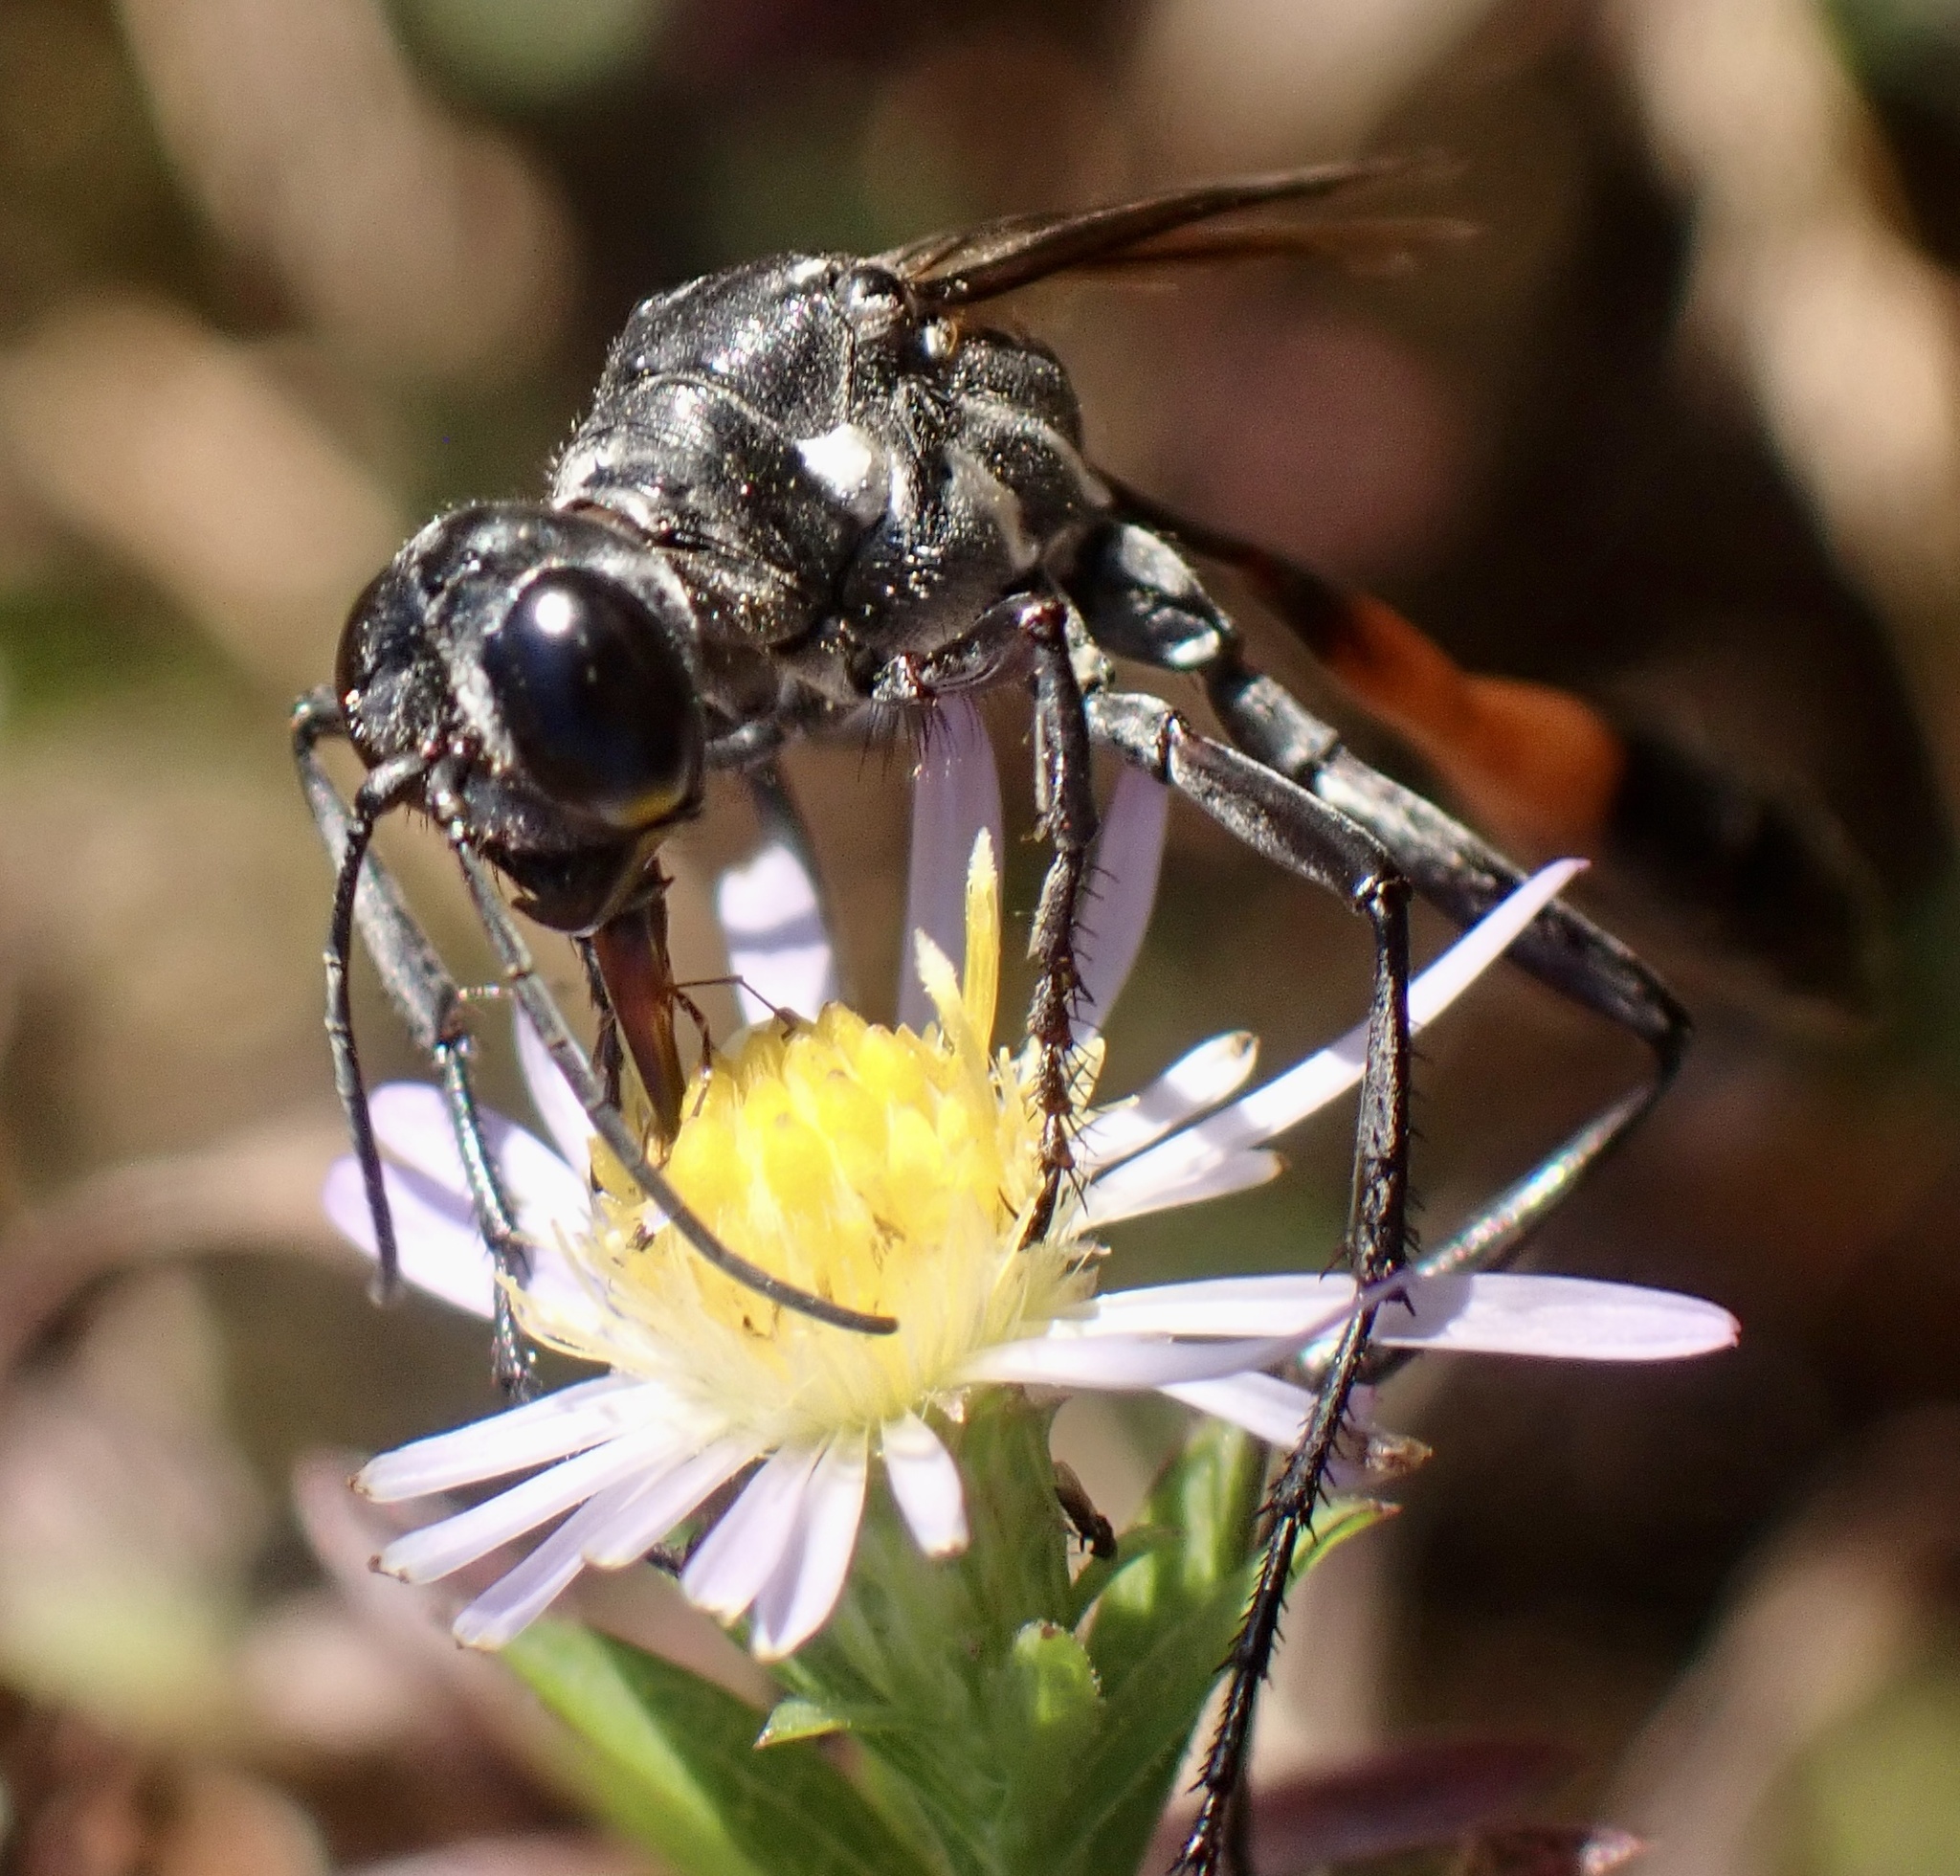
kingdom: Animalia
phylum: Arthropoda
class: Insecta
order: Hymenoptera
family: Sphecidae
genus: Ammophila
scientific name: Ammophila procera
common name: Common thread-waisted wasp
